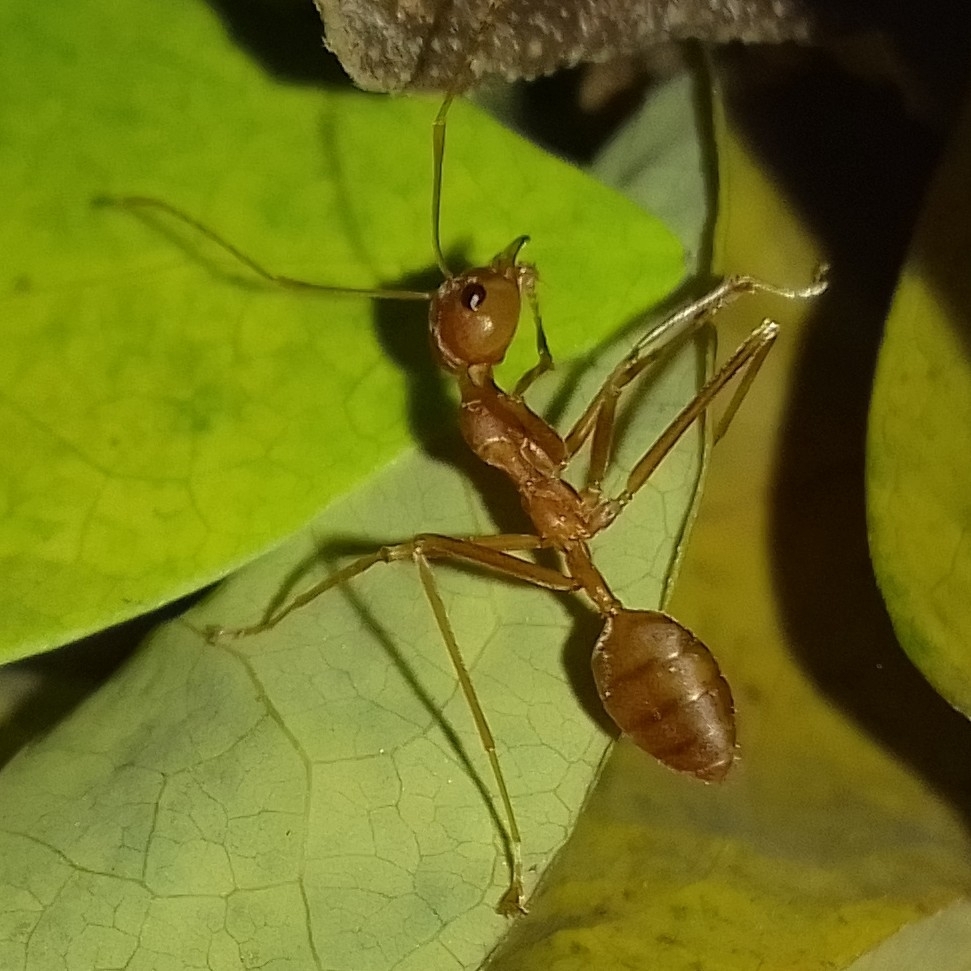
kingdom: Animalia
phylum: Arthropoda
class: Insecta
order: Hymenoptera
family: Formicidae
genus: Oecophylla
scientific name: Oecophylla smaragdina
